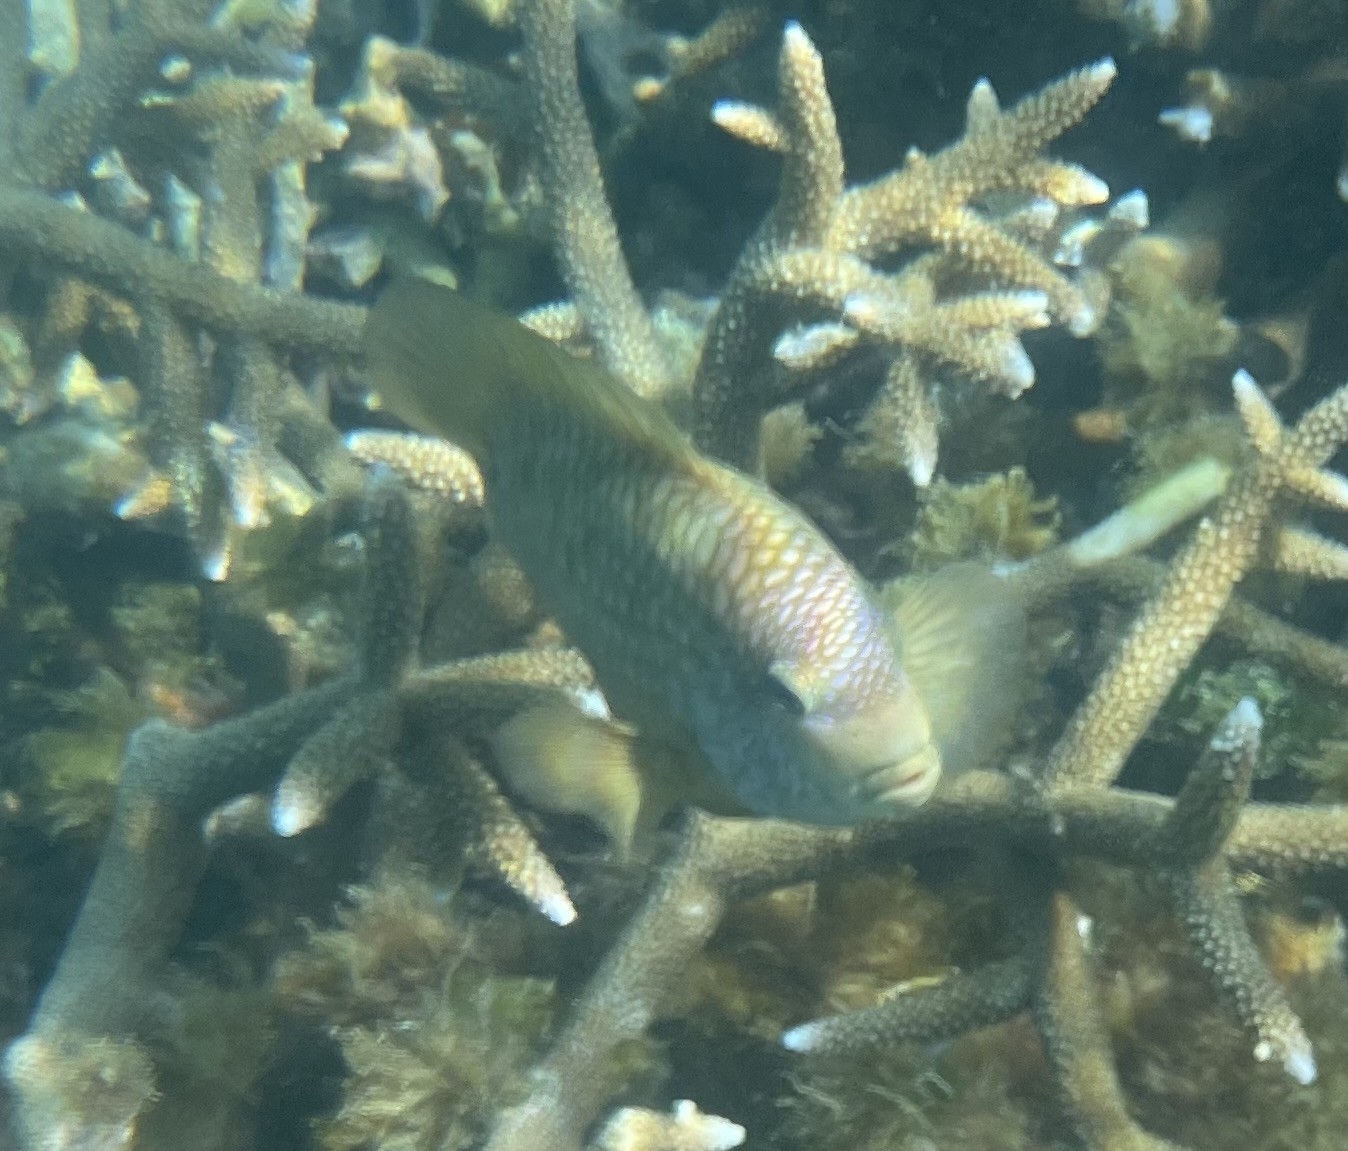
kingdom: Animalia
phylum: Chordata
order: Perciformes
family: Pomacentridae
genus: Stegastes
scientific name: Stegastes punctatus
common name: Blunt snout gregory
